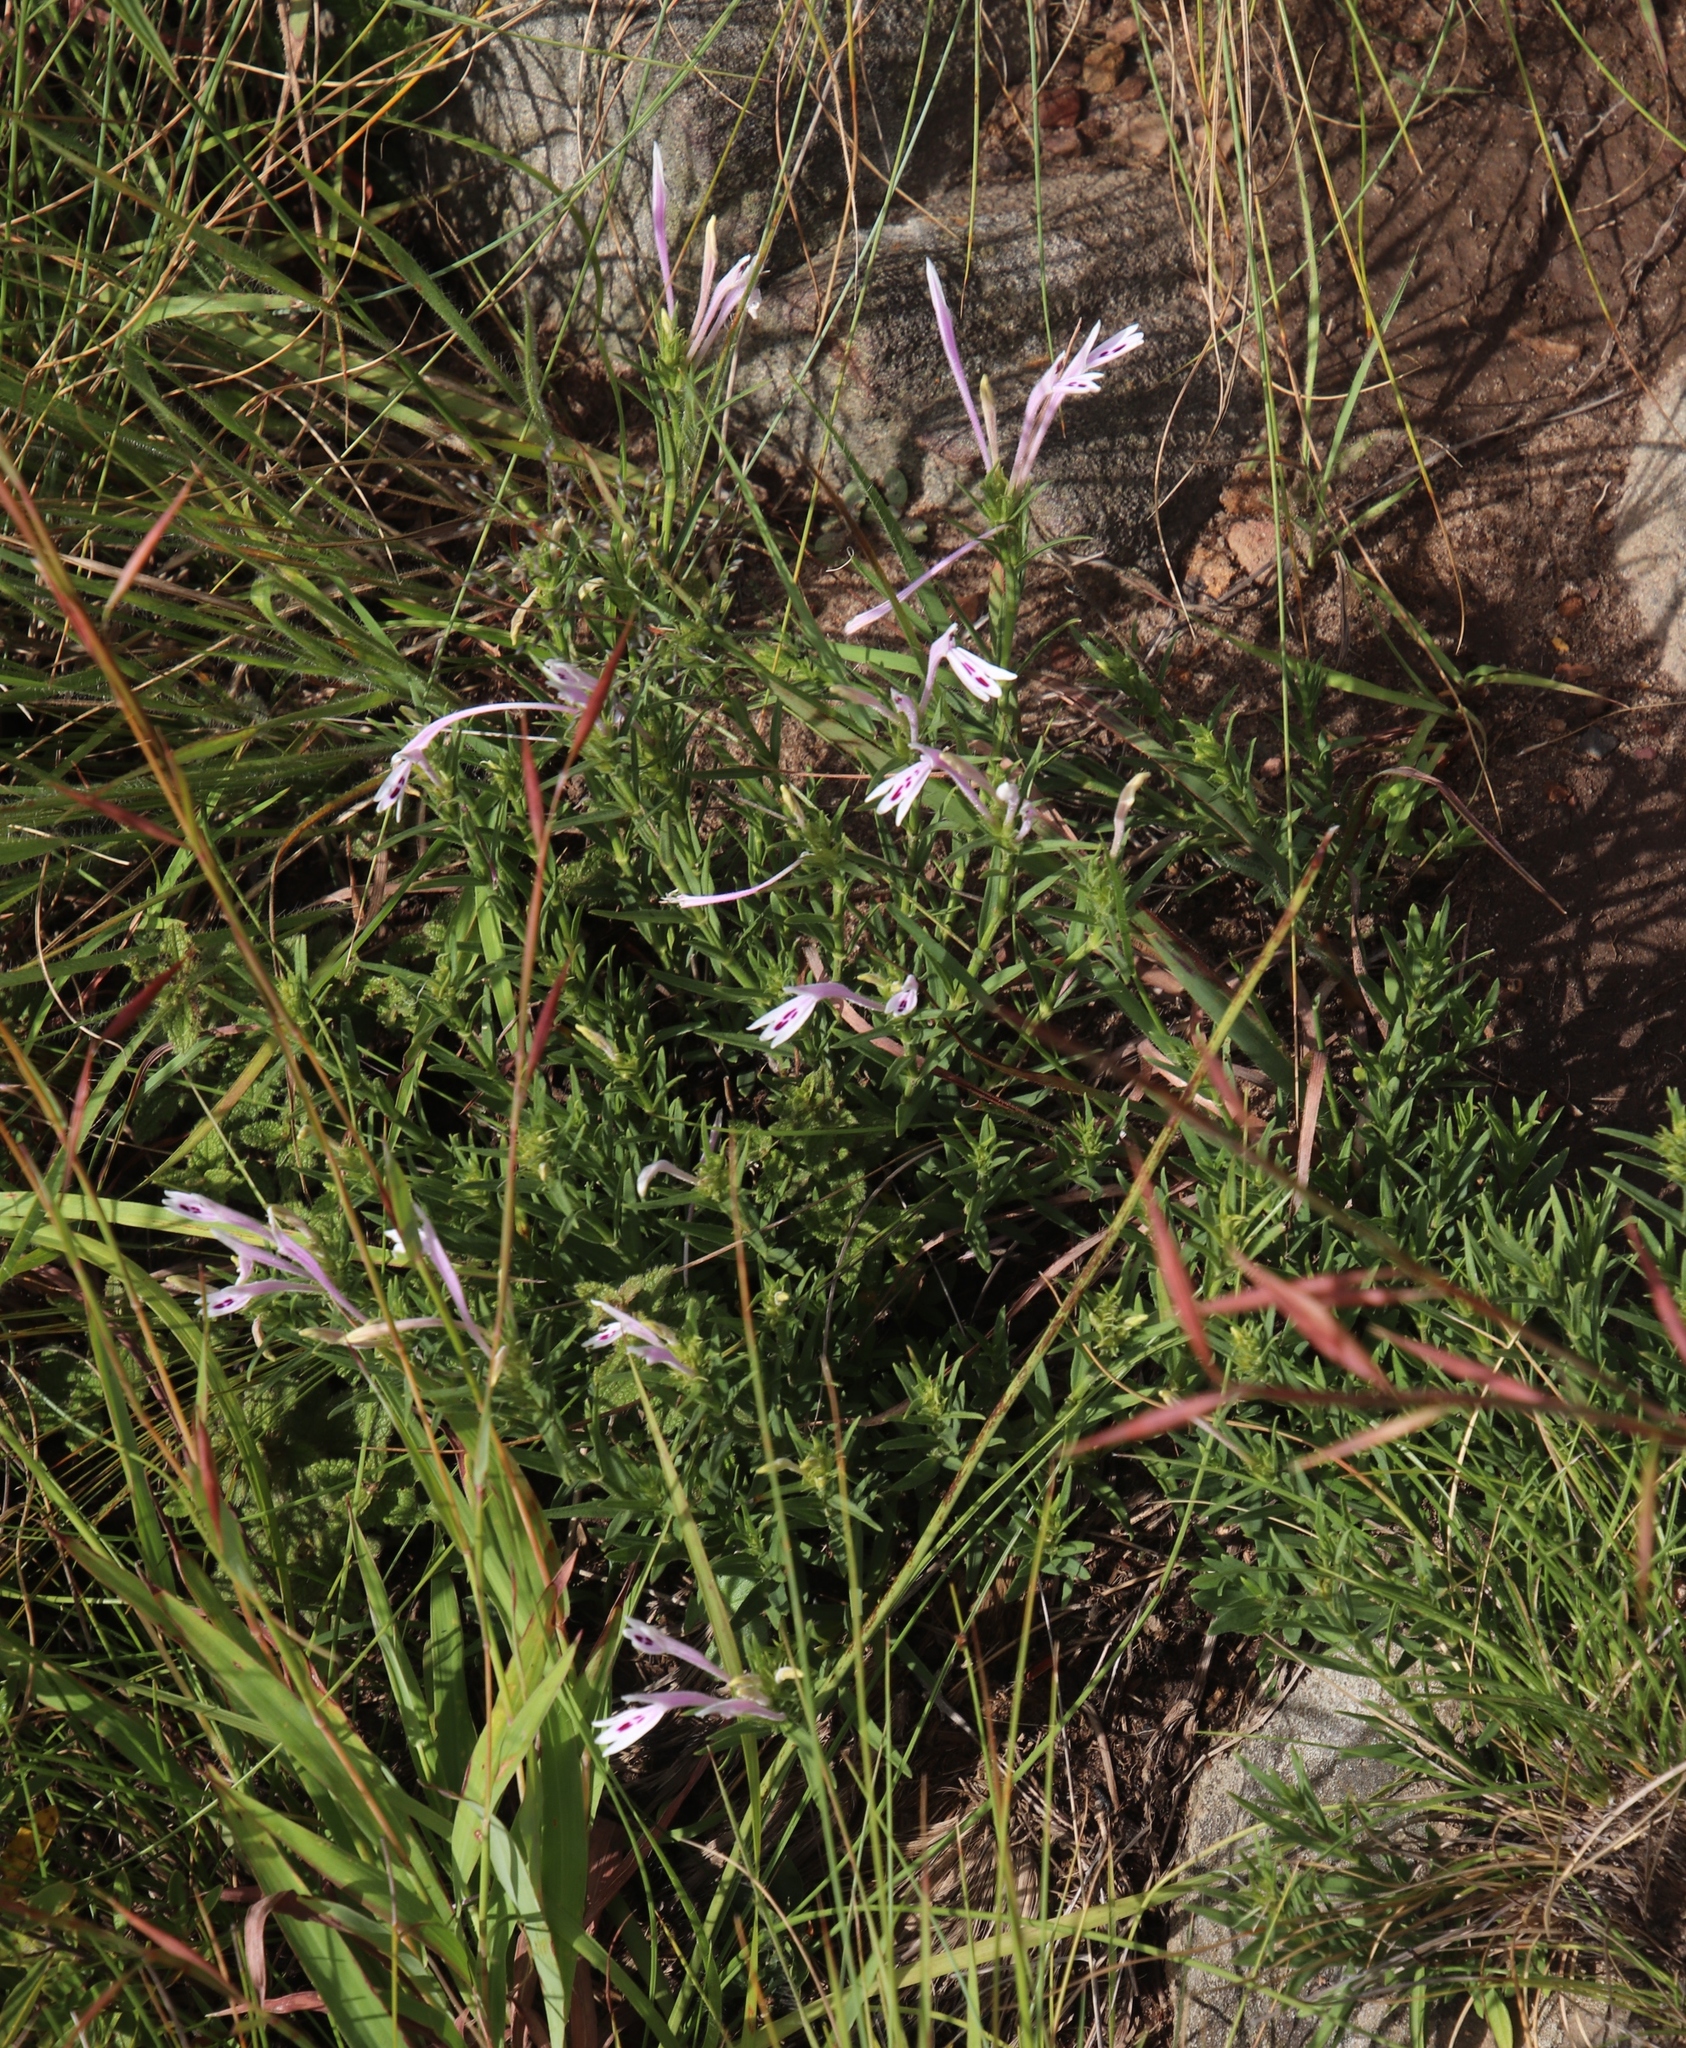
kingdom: Plantae
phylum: Tracheophyta
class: Magnoliopsida
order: Lamiales
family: Acanthaceae
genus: Justicia
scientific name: Justicia linifolia
